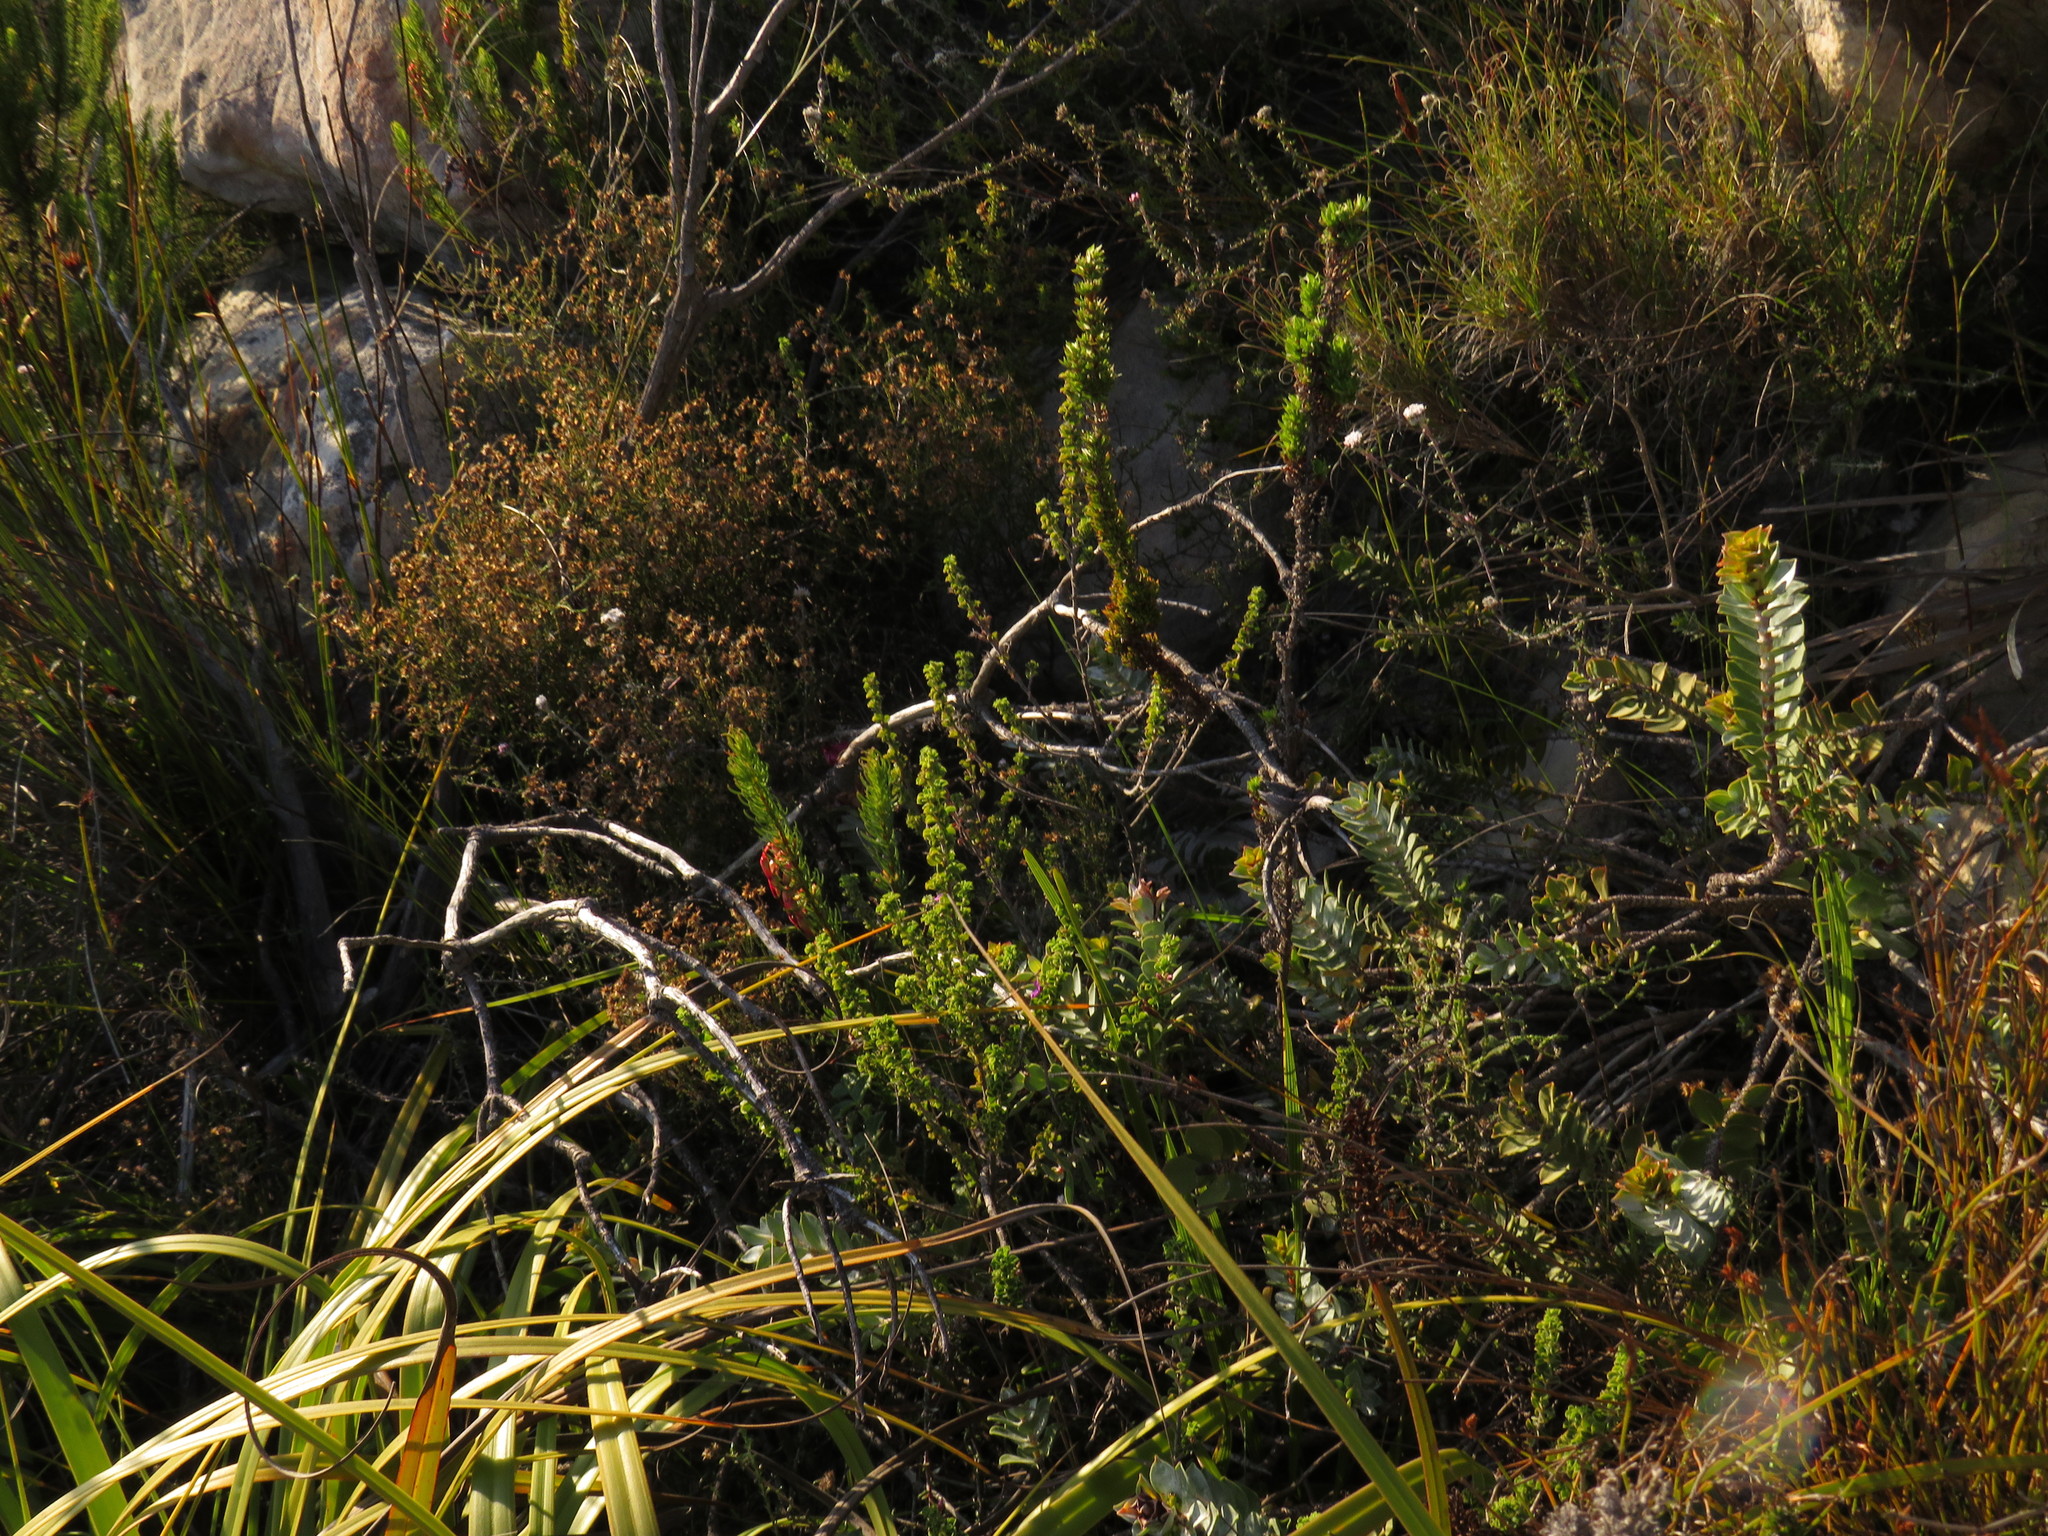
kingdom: Plantae
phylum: Tracheophyta
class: Magnoliopsida
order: Fabales
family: Fabaceae
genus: Indigofera
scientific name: Indigofera candolleana
